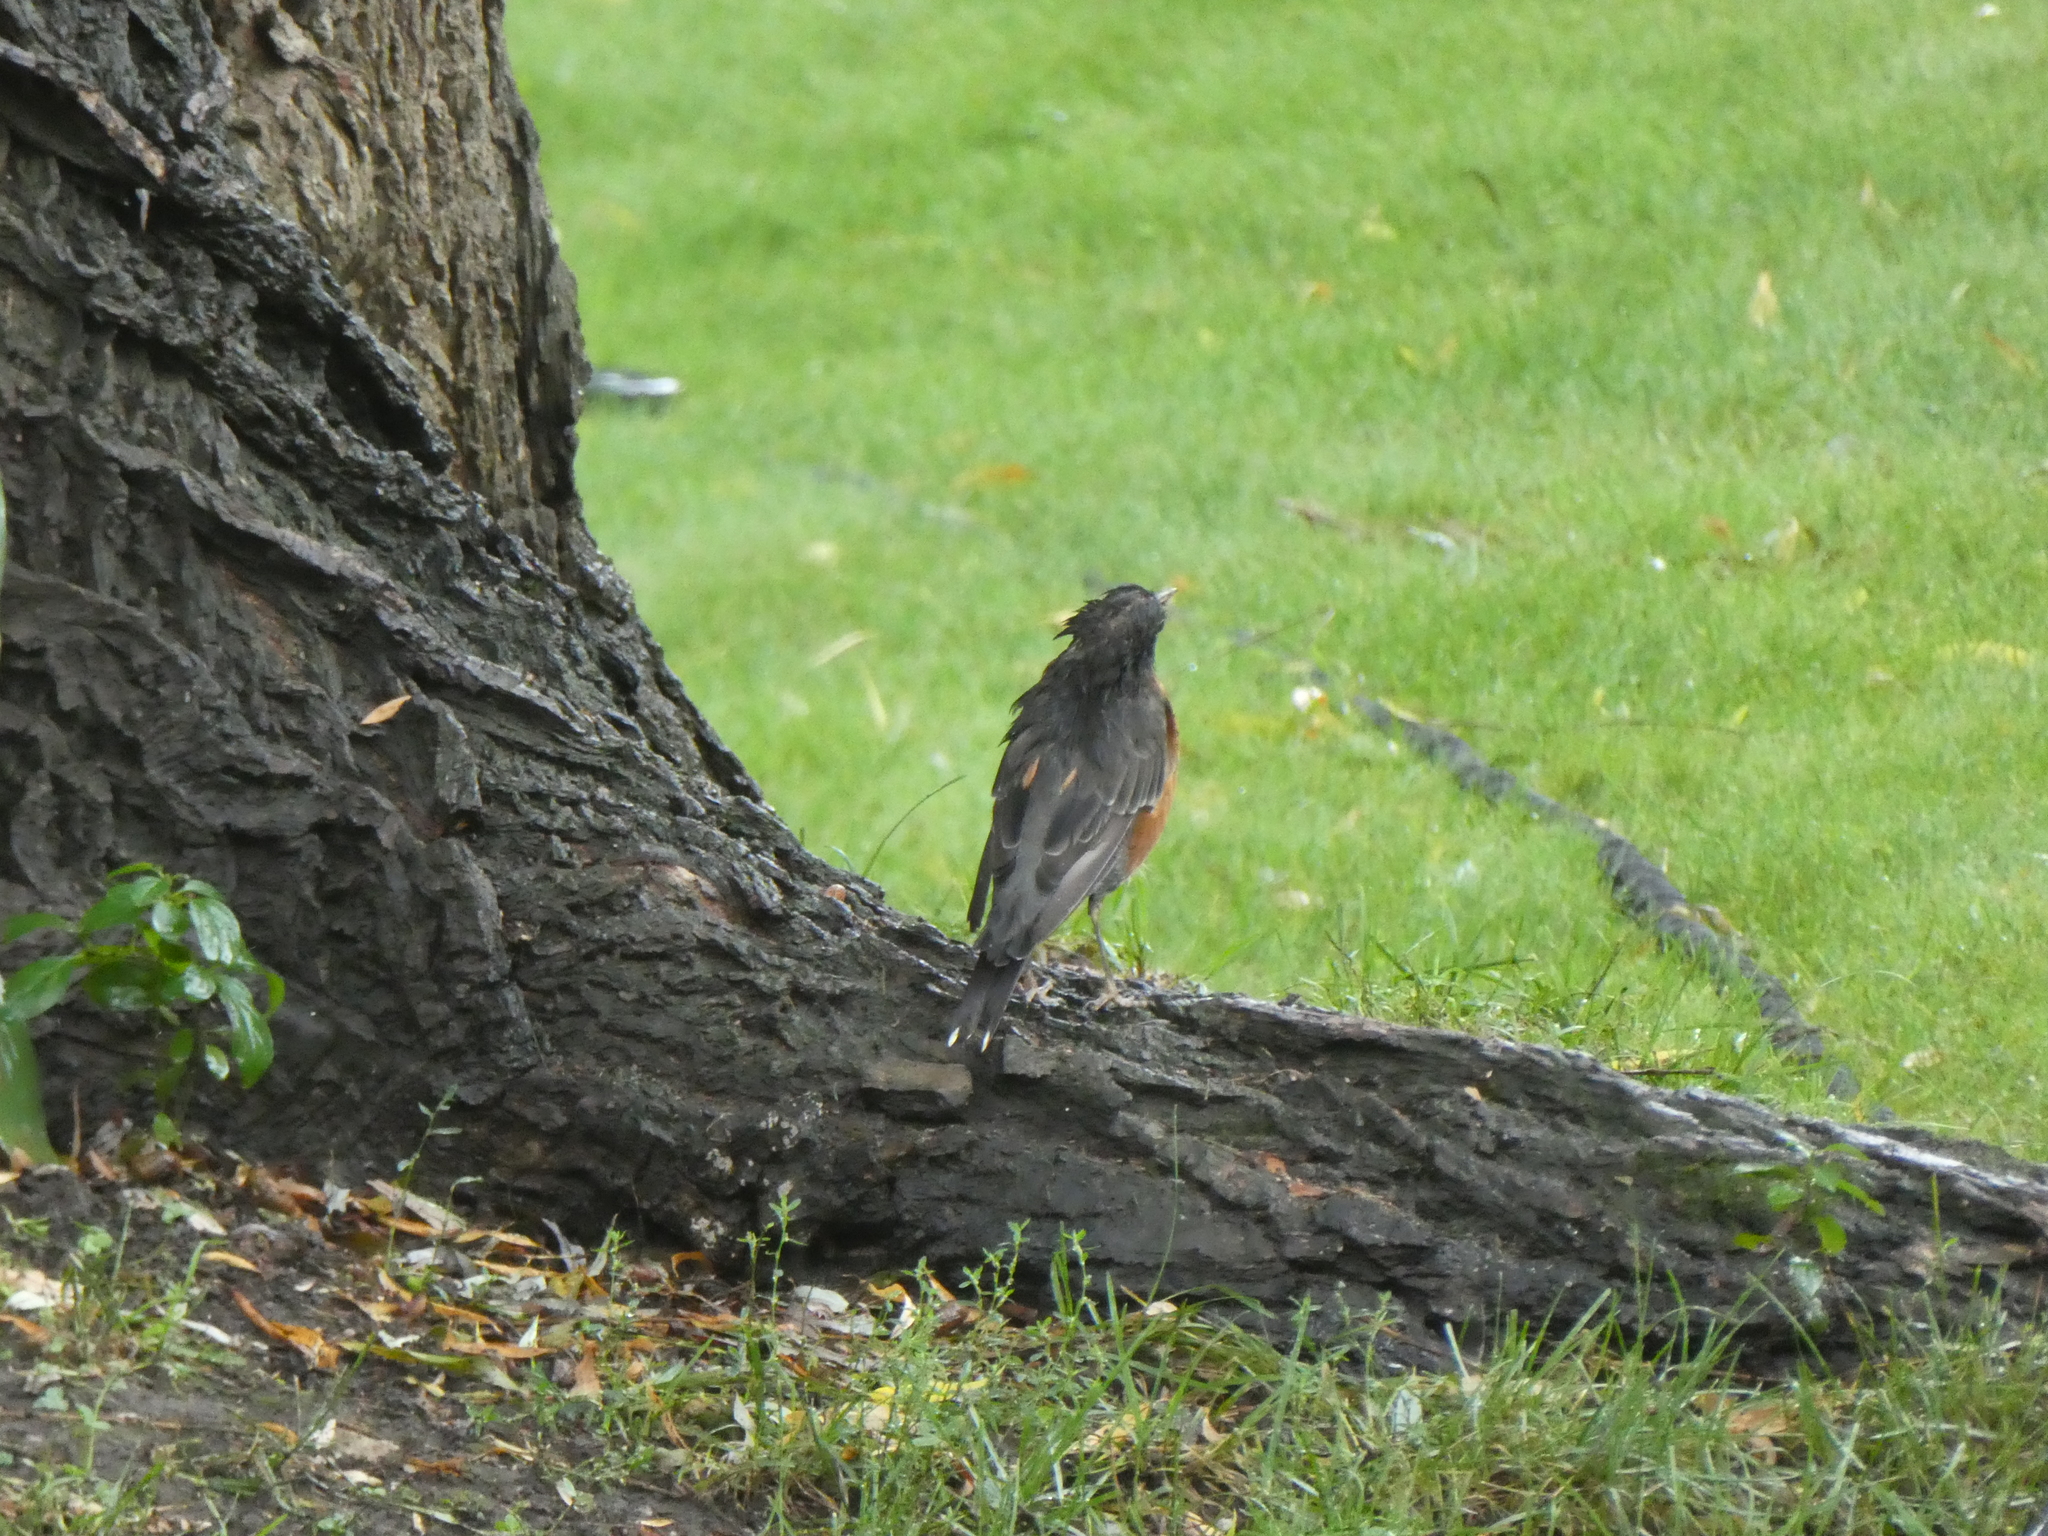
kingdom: Animalia
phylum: Chordata
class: Aves
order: Passeriformes
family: Turdidae
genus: Turdus
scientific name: Turdus migratorius
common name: American robin
